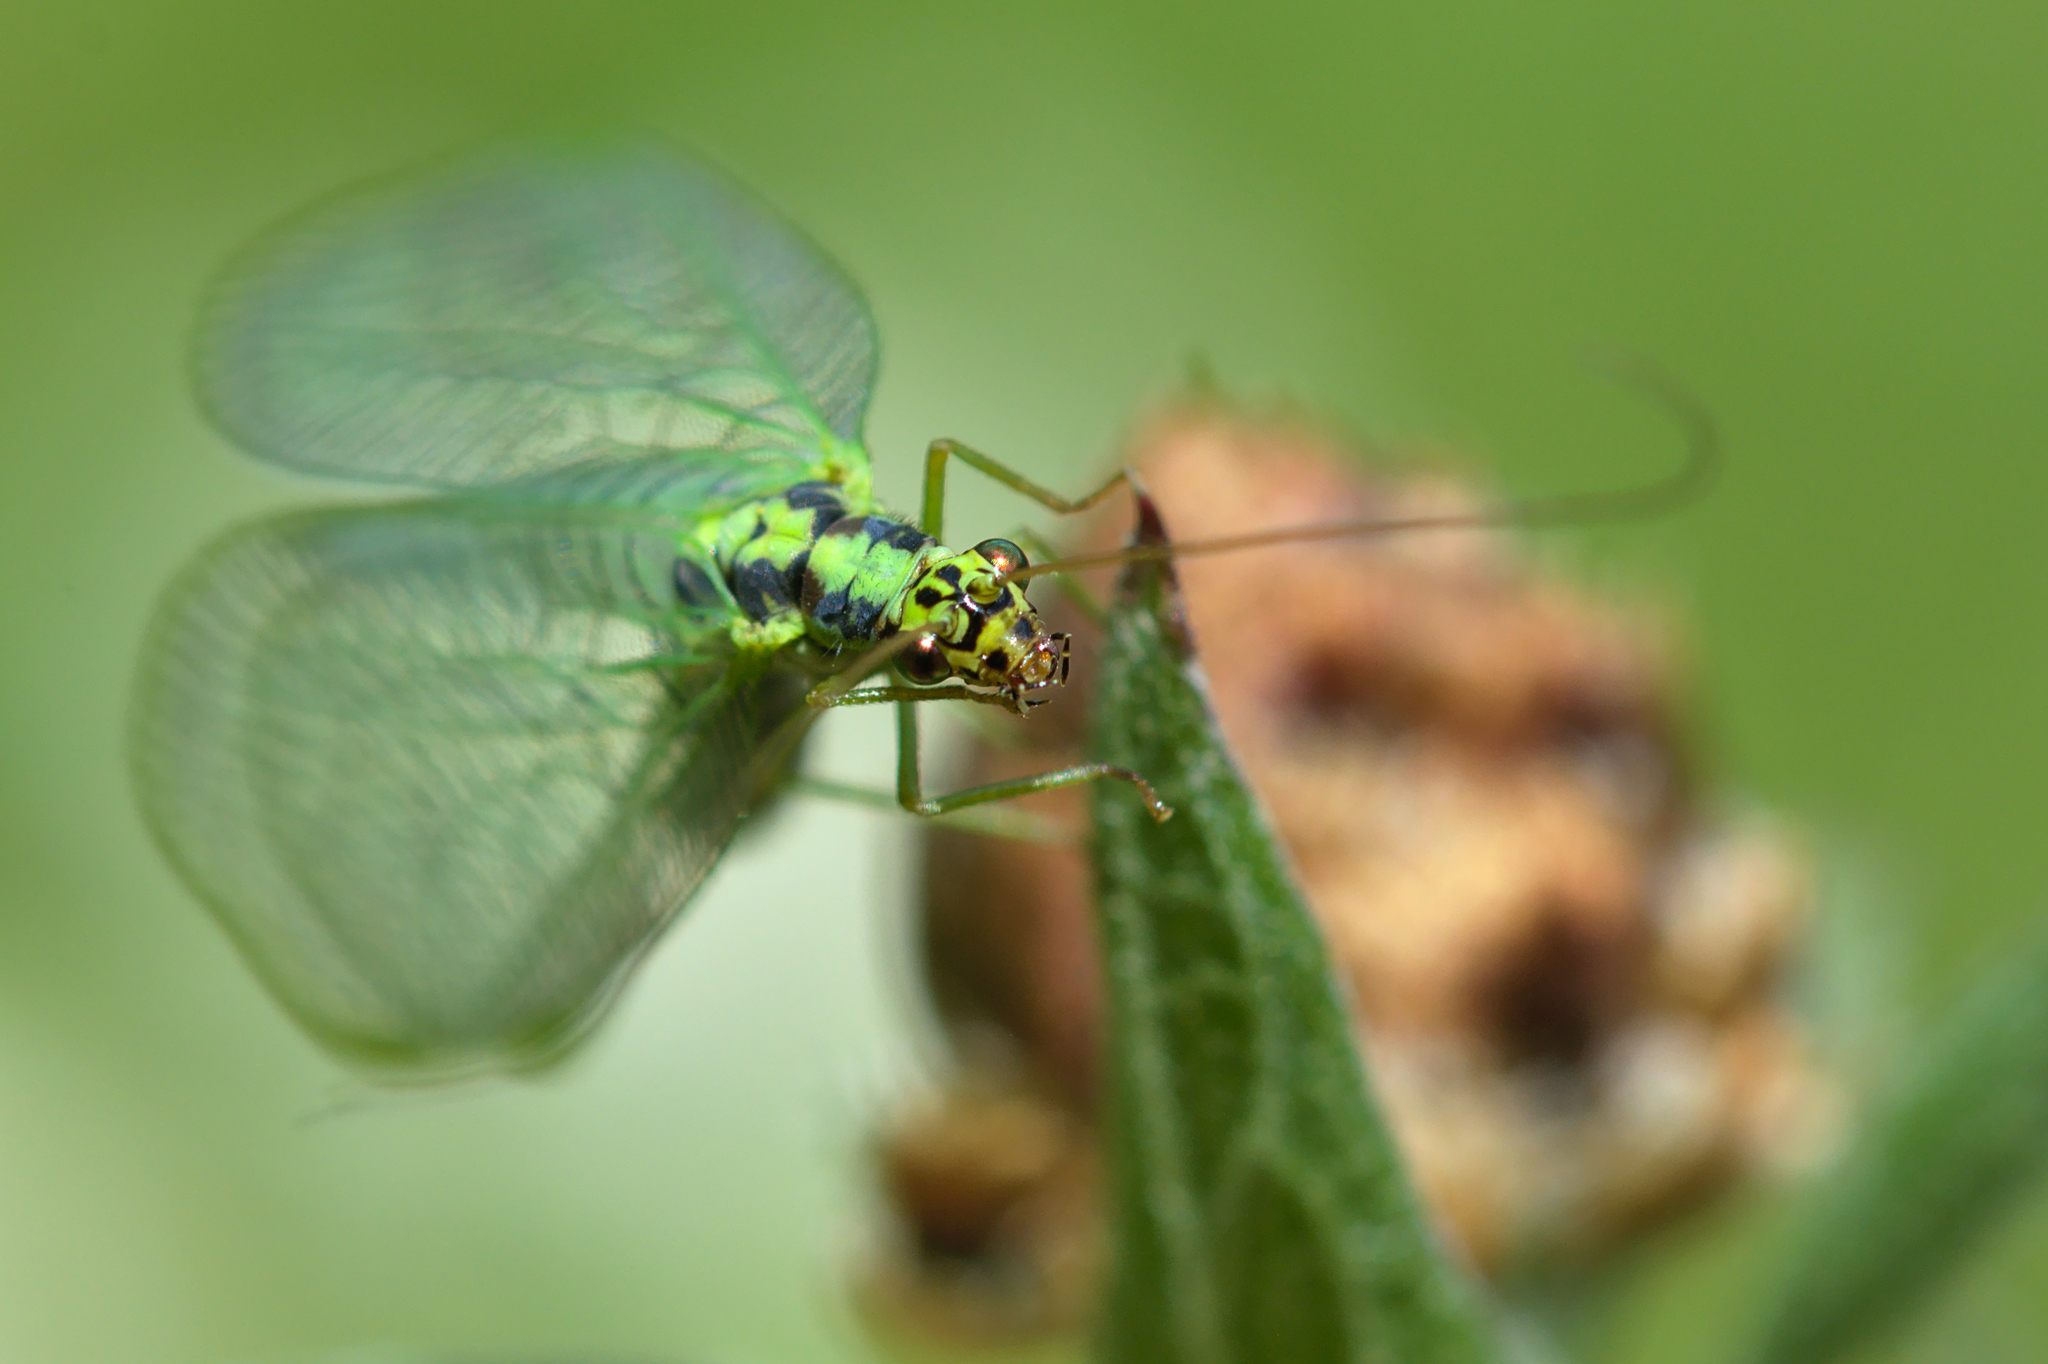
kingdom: Animalia
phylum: Arthropoda
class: Insecta
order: Neuroptera
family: Chrysopidae
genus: Chrysopa
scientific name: Chrysopa walkeri
